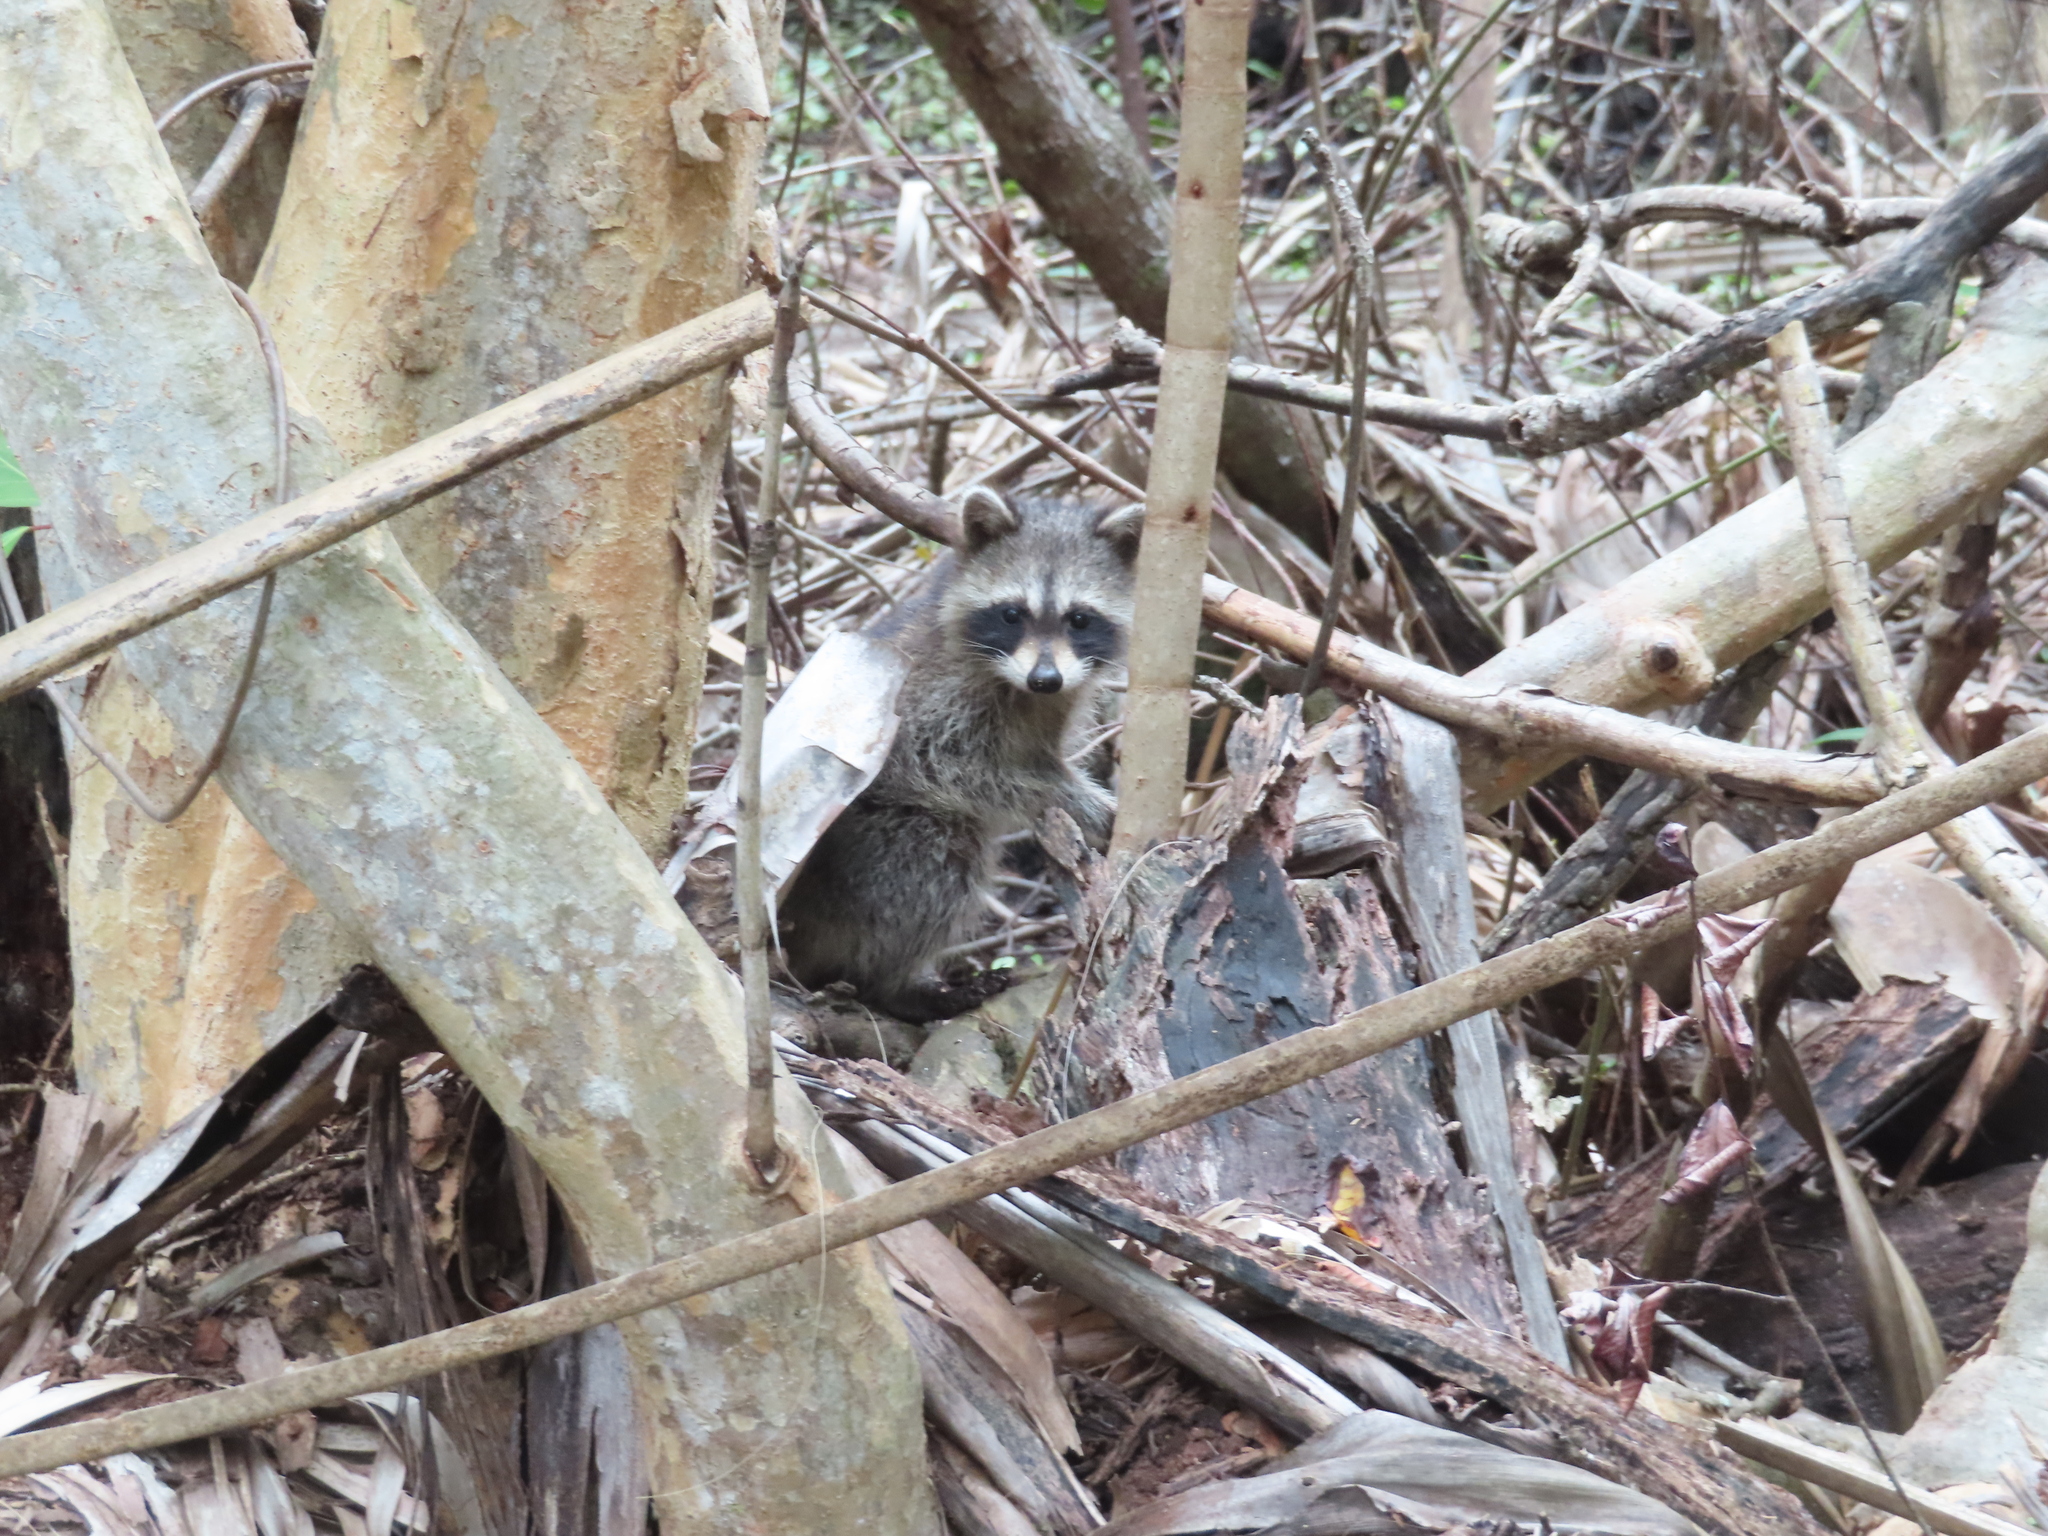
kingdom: Animalia
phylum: Chordata
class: Mammalia
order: Carnivora
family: Procyonidae
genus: Procyon
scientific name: Procyon lotor
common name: Raccoon
